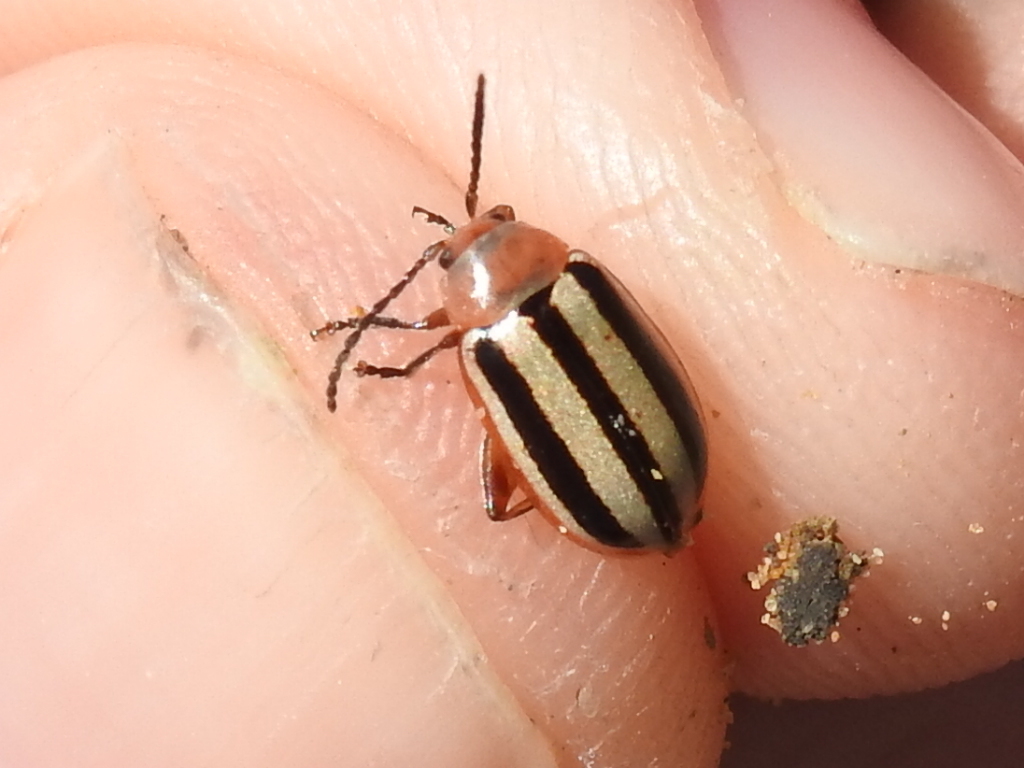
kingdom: Animalia
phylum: Arthropoda
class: Insecta
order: Coleoptera
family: Chrysomelidae
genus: Disonycha
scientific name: Disonycha leptolineata
